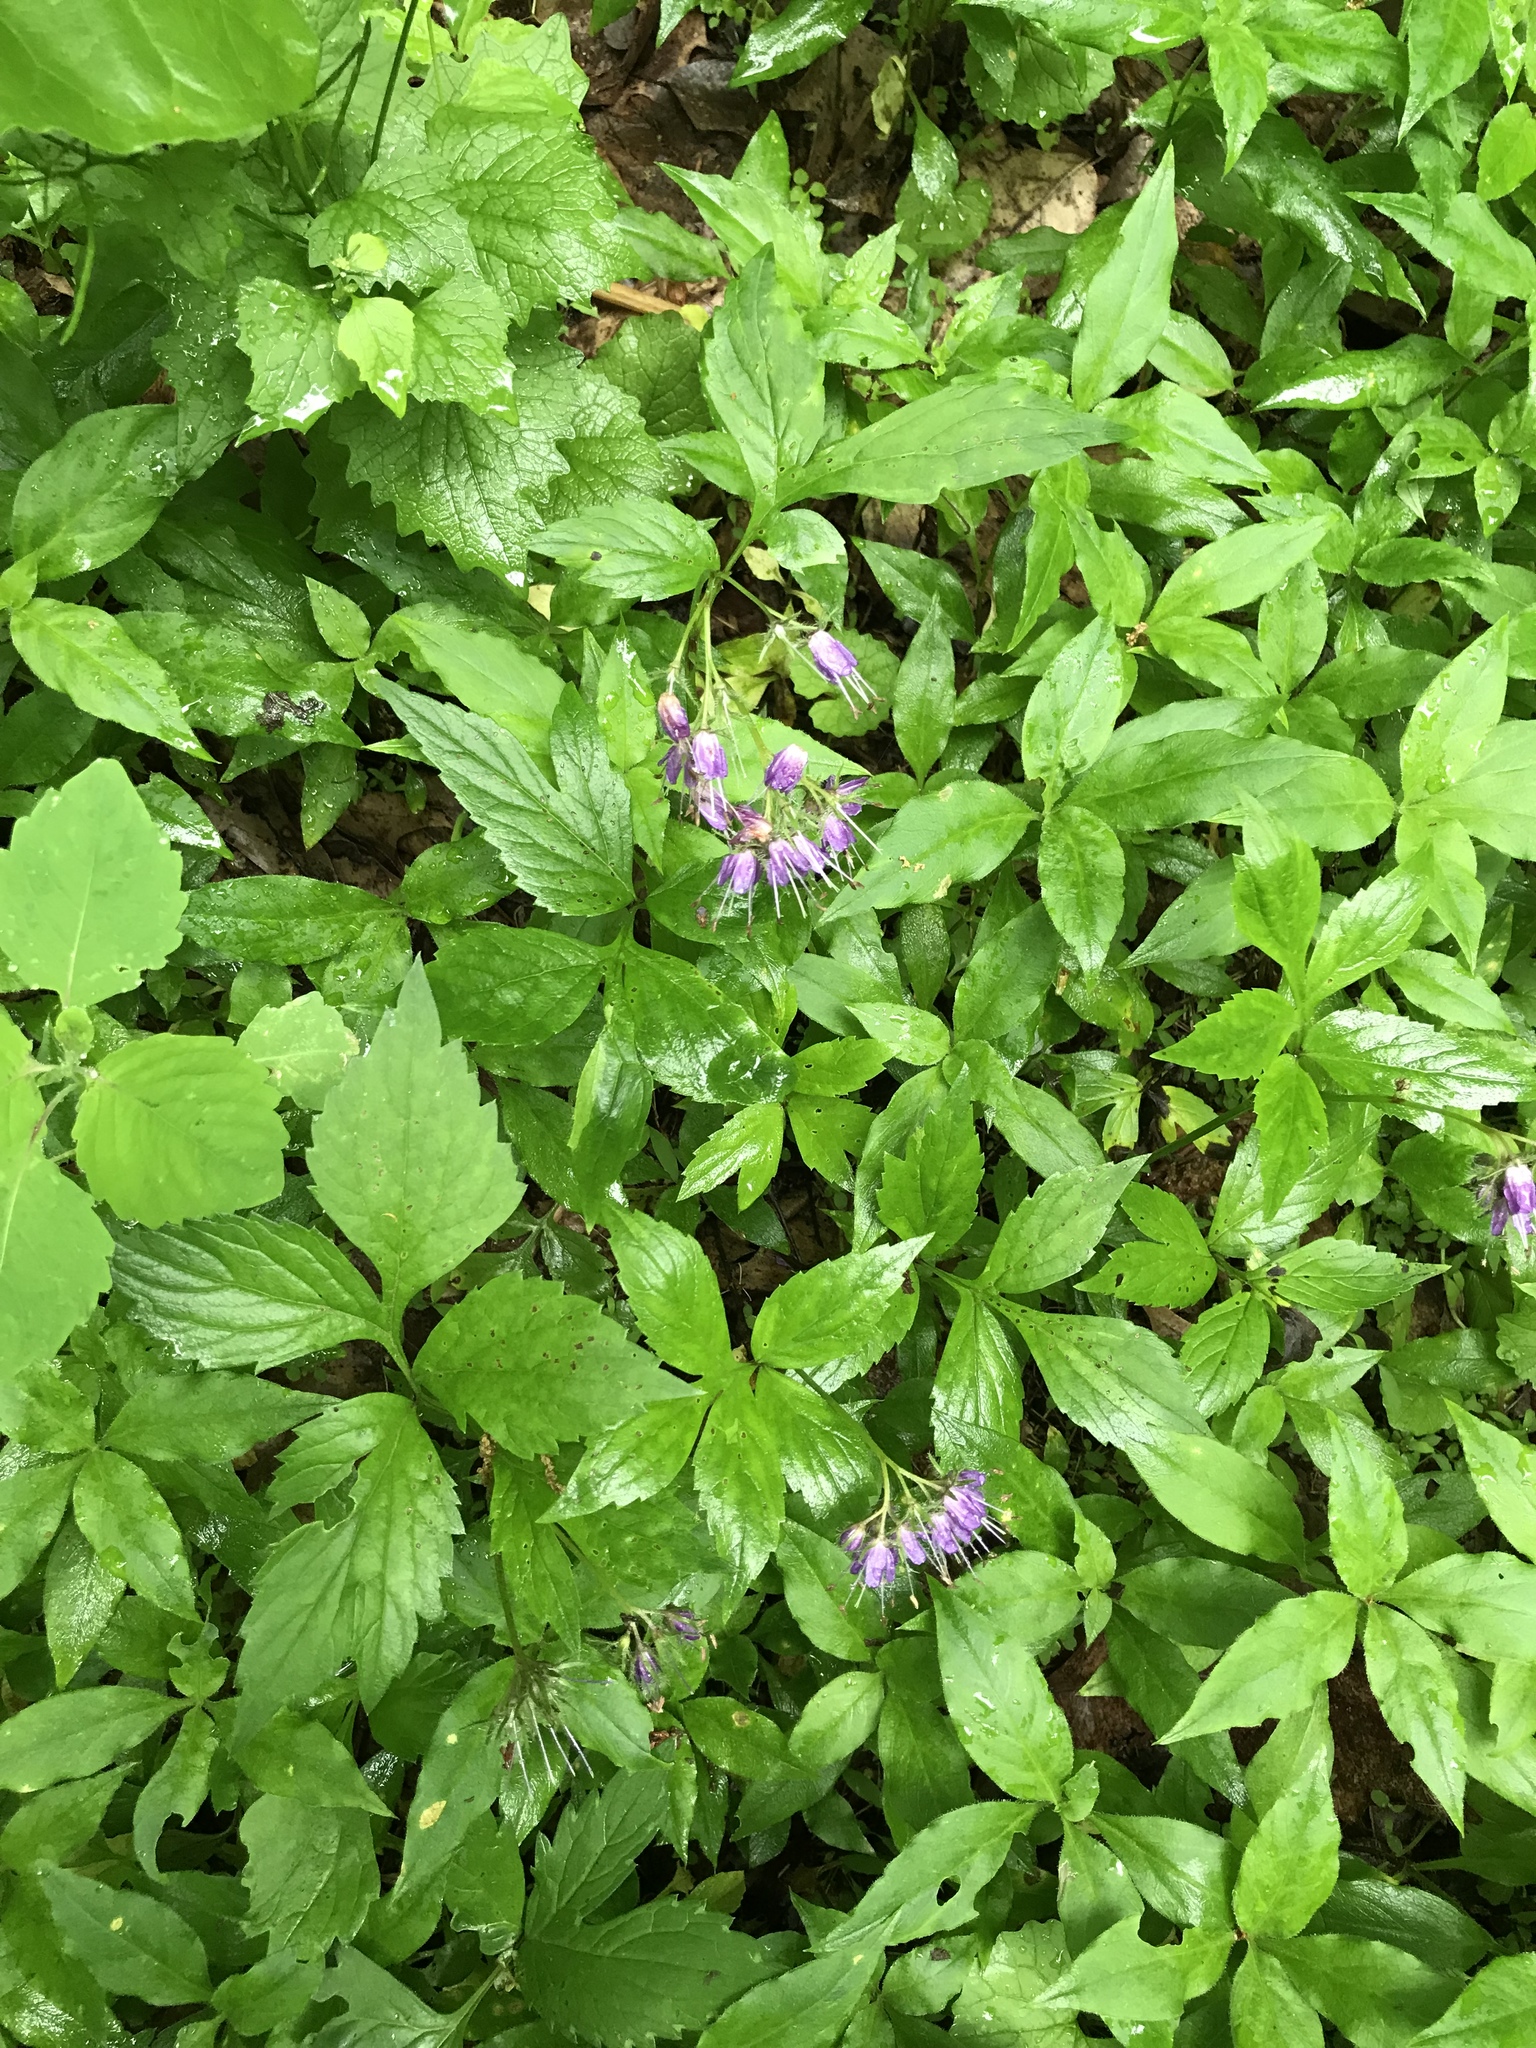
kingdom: Plantae
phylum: Tracheophyta
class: Magnoliopsida
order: Boraginales
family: Hydrophyllaceae
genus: Hydrophyllum
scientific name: Hydrophyllum virginianum
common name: Virginia waterleaf
